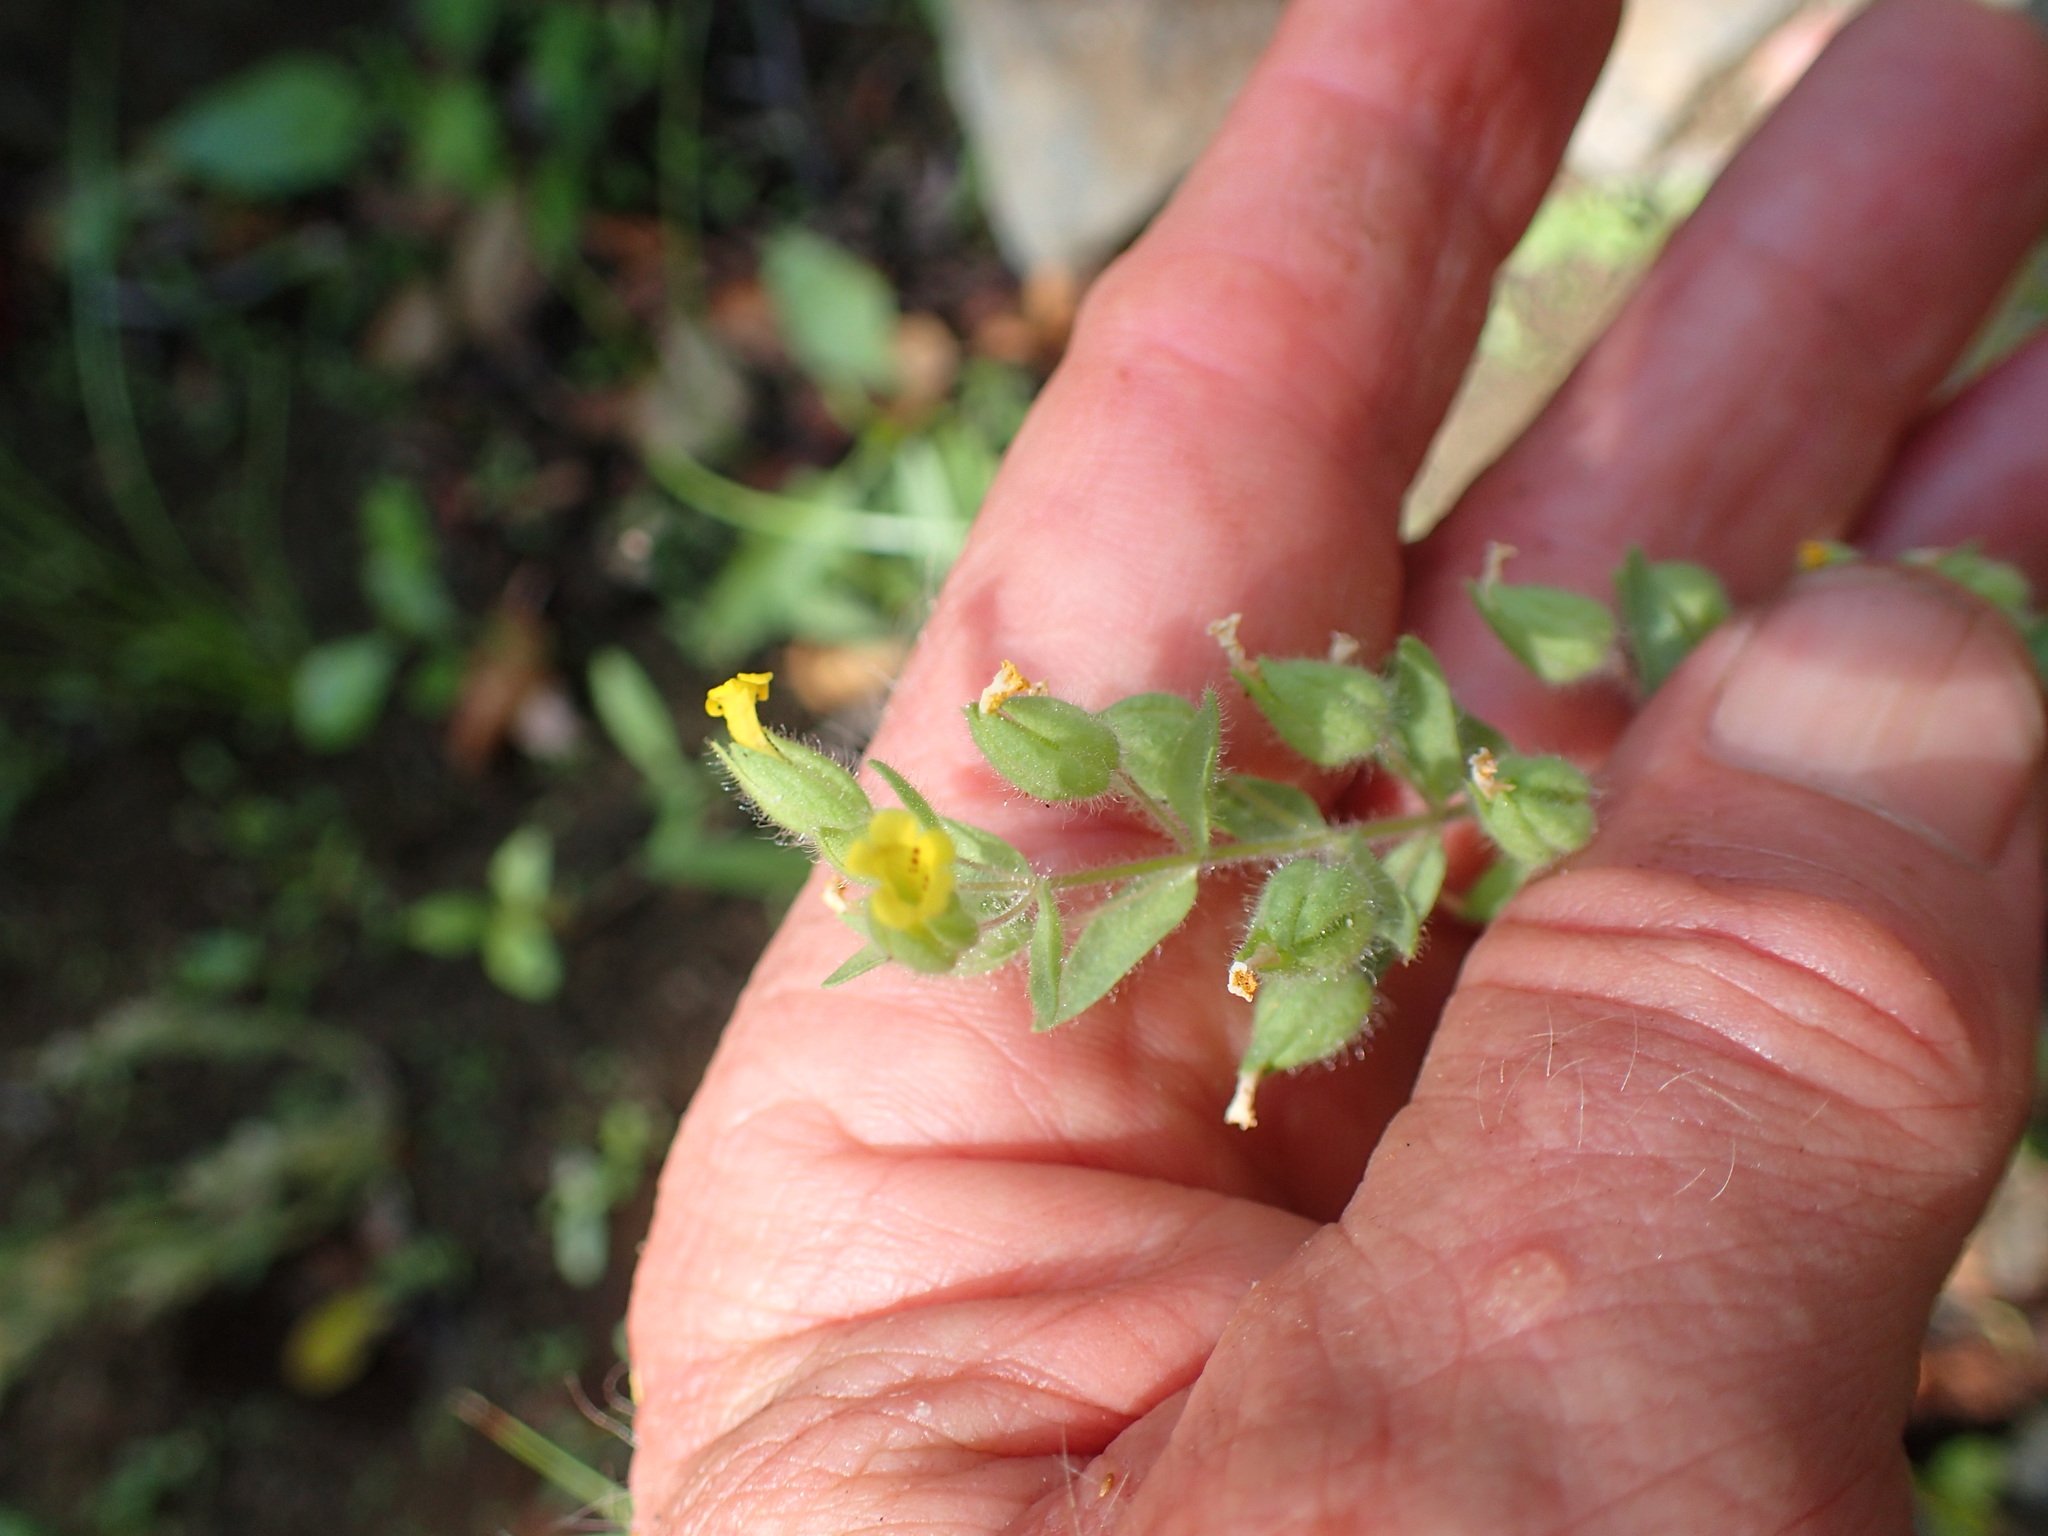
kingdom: Plantae
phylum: Tracheophyta
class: Magnoliopsida
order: Lamiales
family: Phrymaceae
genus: Mimetanthe
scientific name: Mimetanthe pilosa
